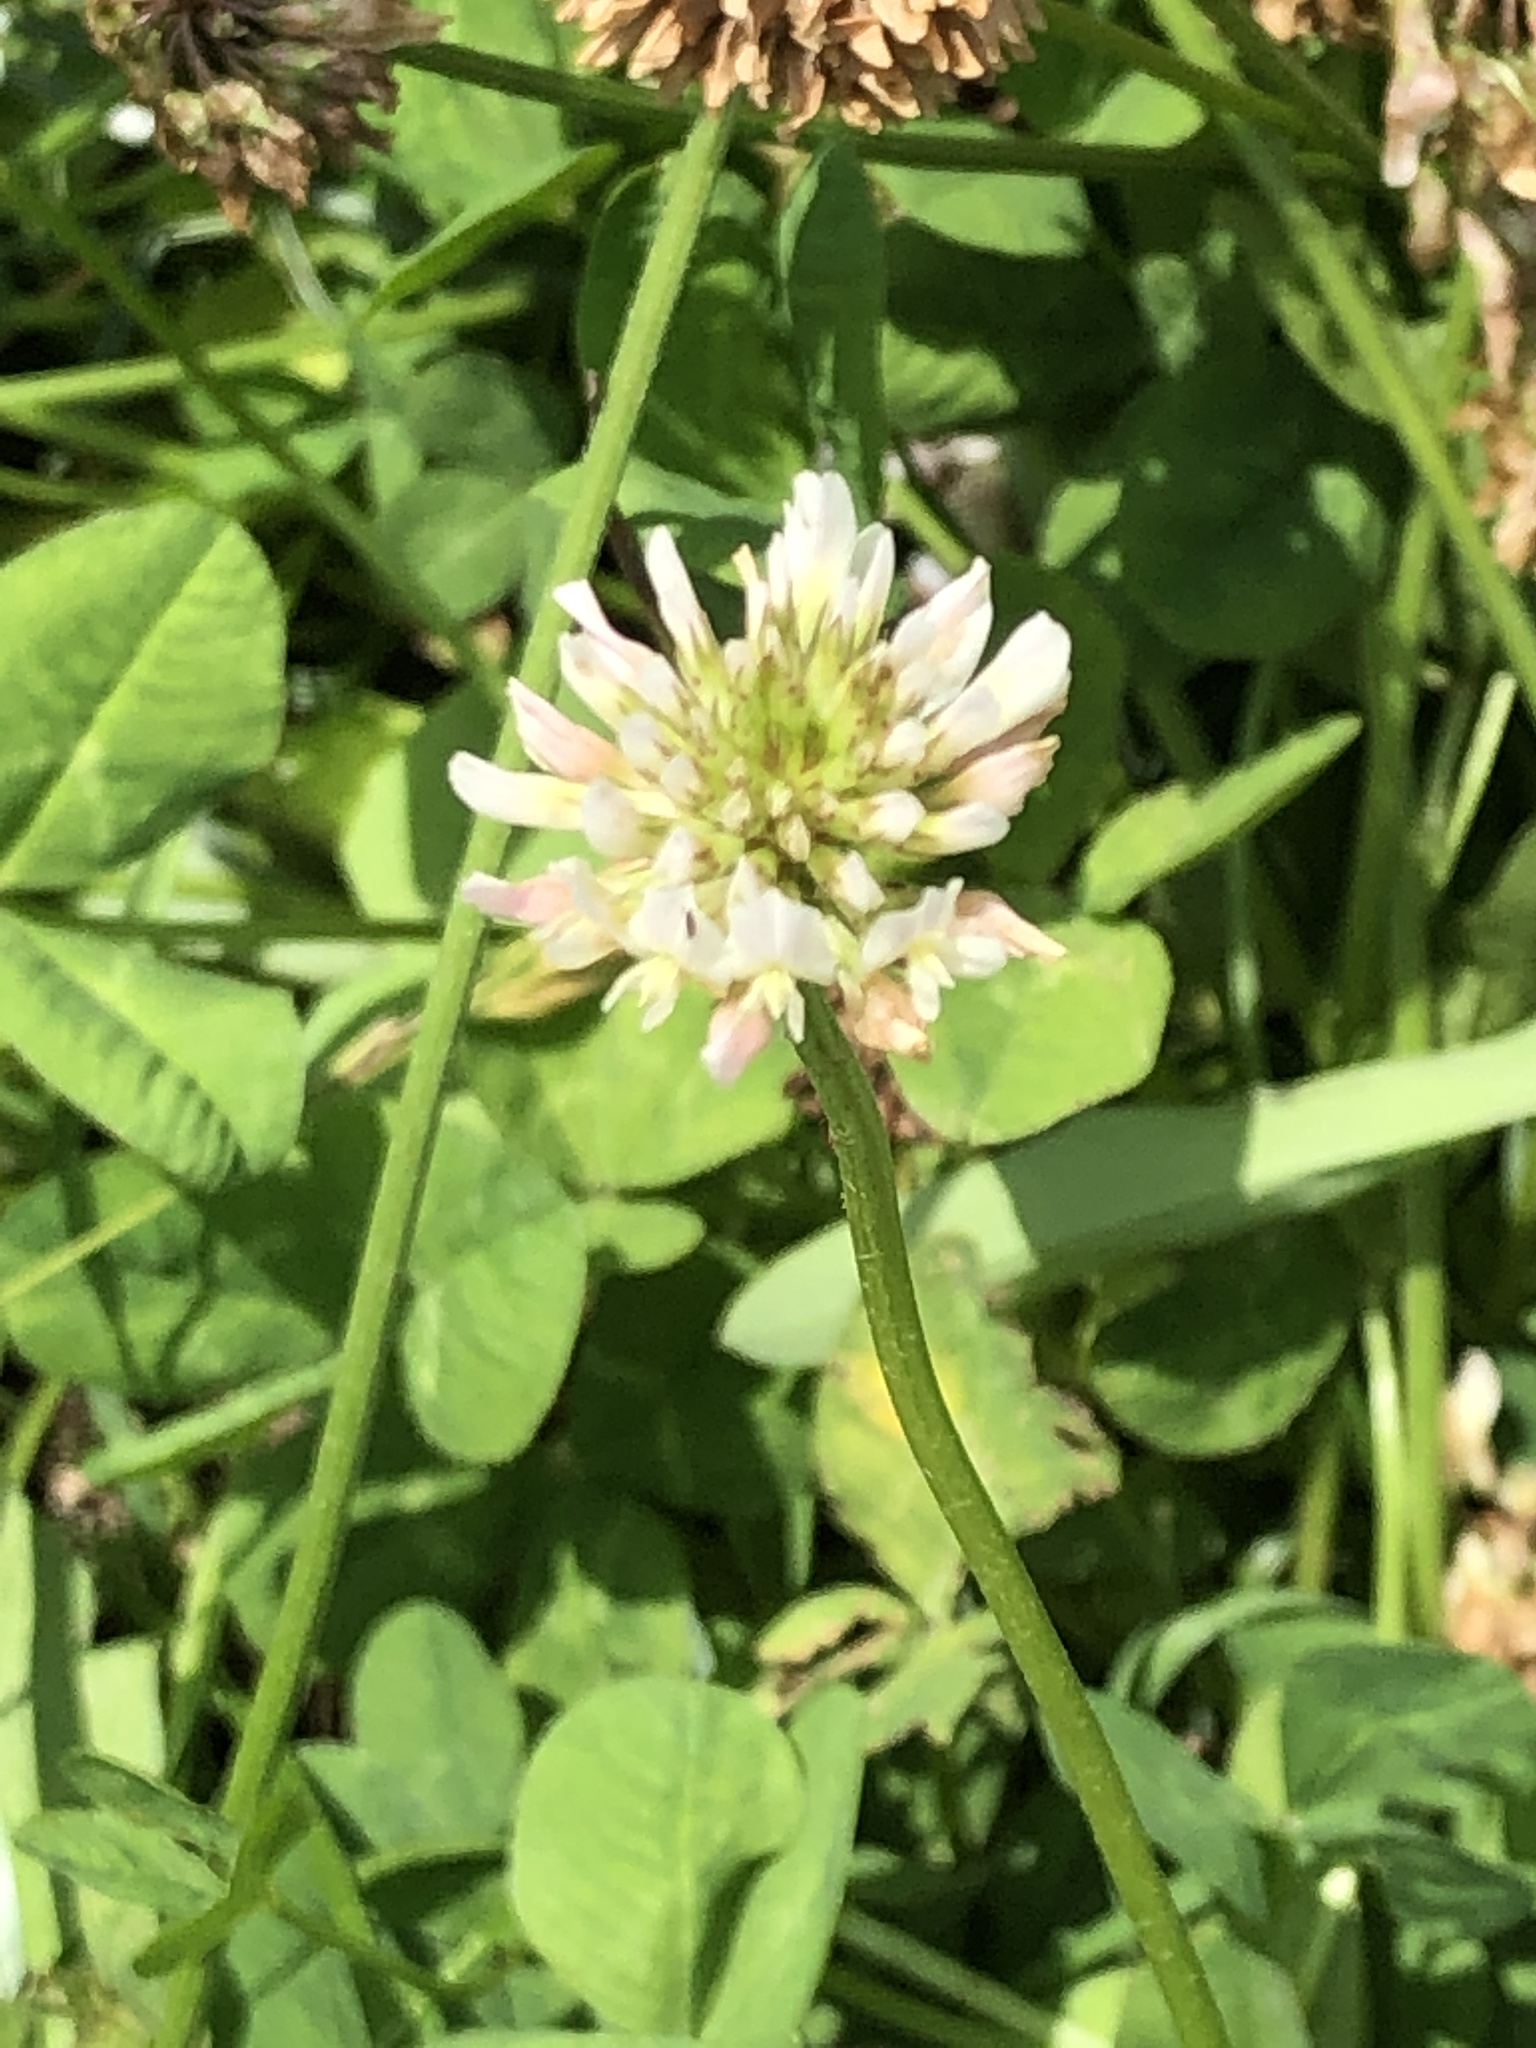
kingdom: Plantae
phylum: Tracheophyta
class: Magnoliopsida
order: Fabales
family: Fabaceae
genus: Trifolium
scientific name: Trifolium repens
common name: White clover
